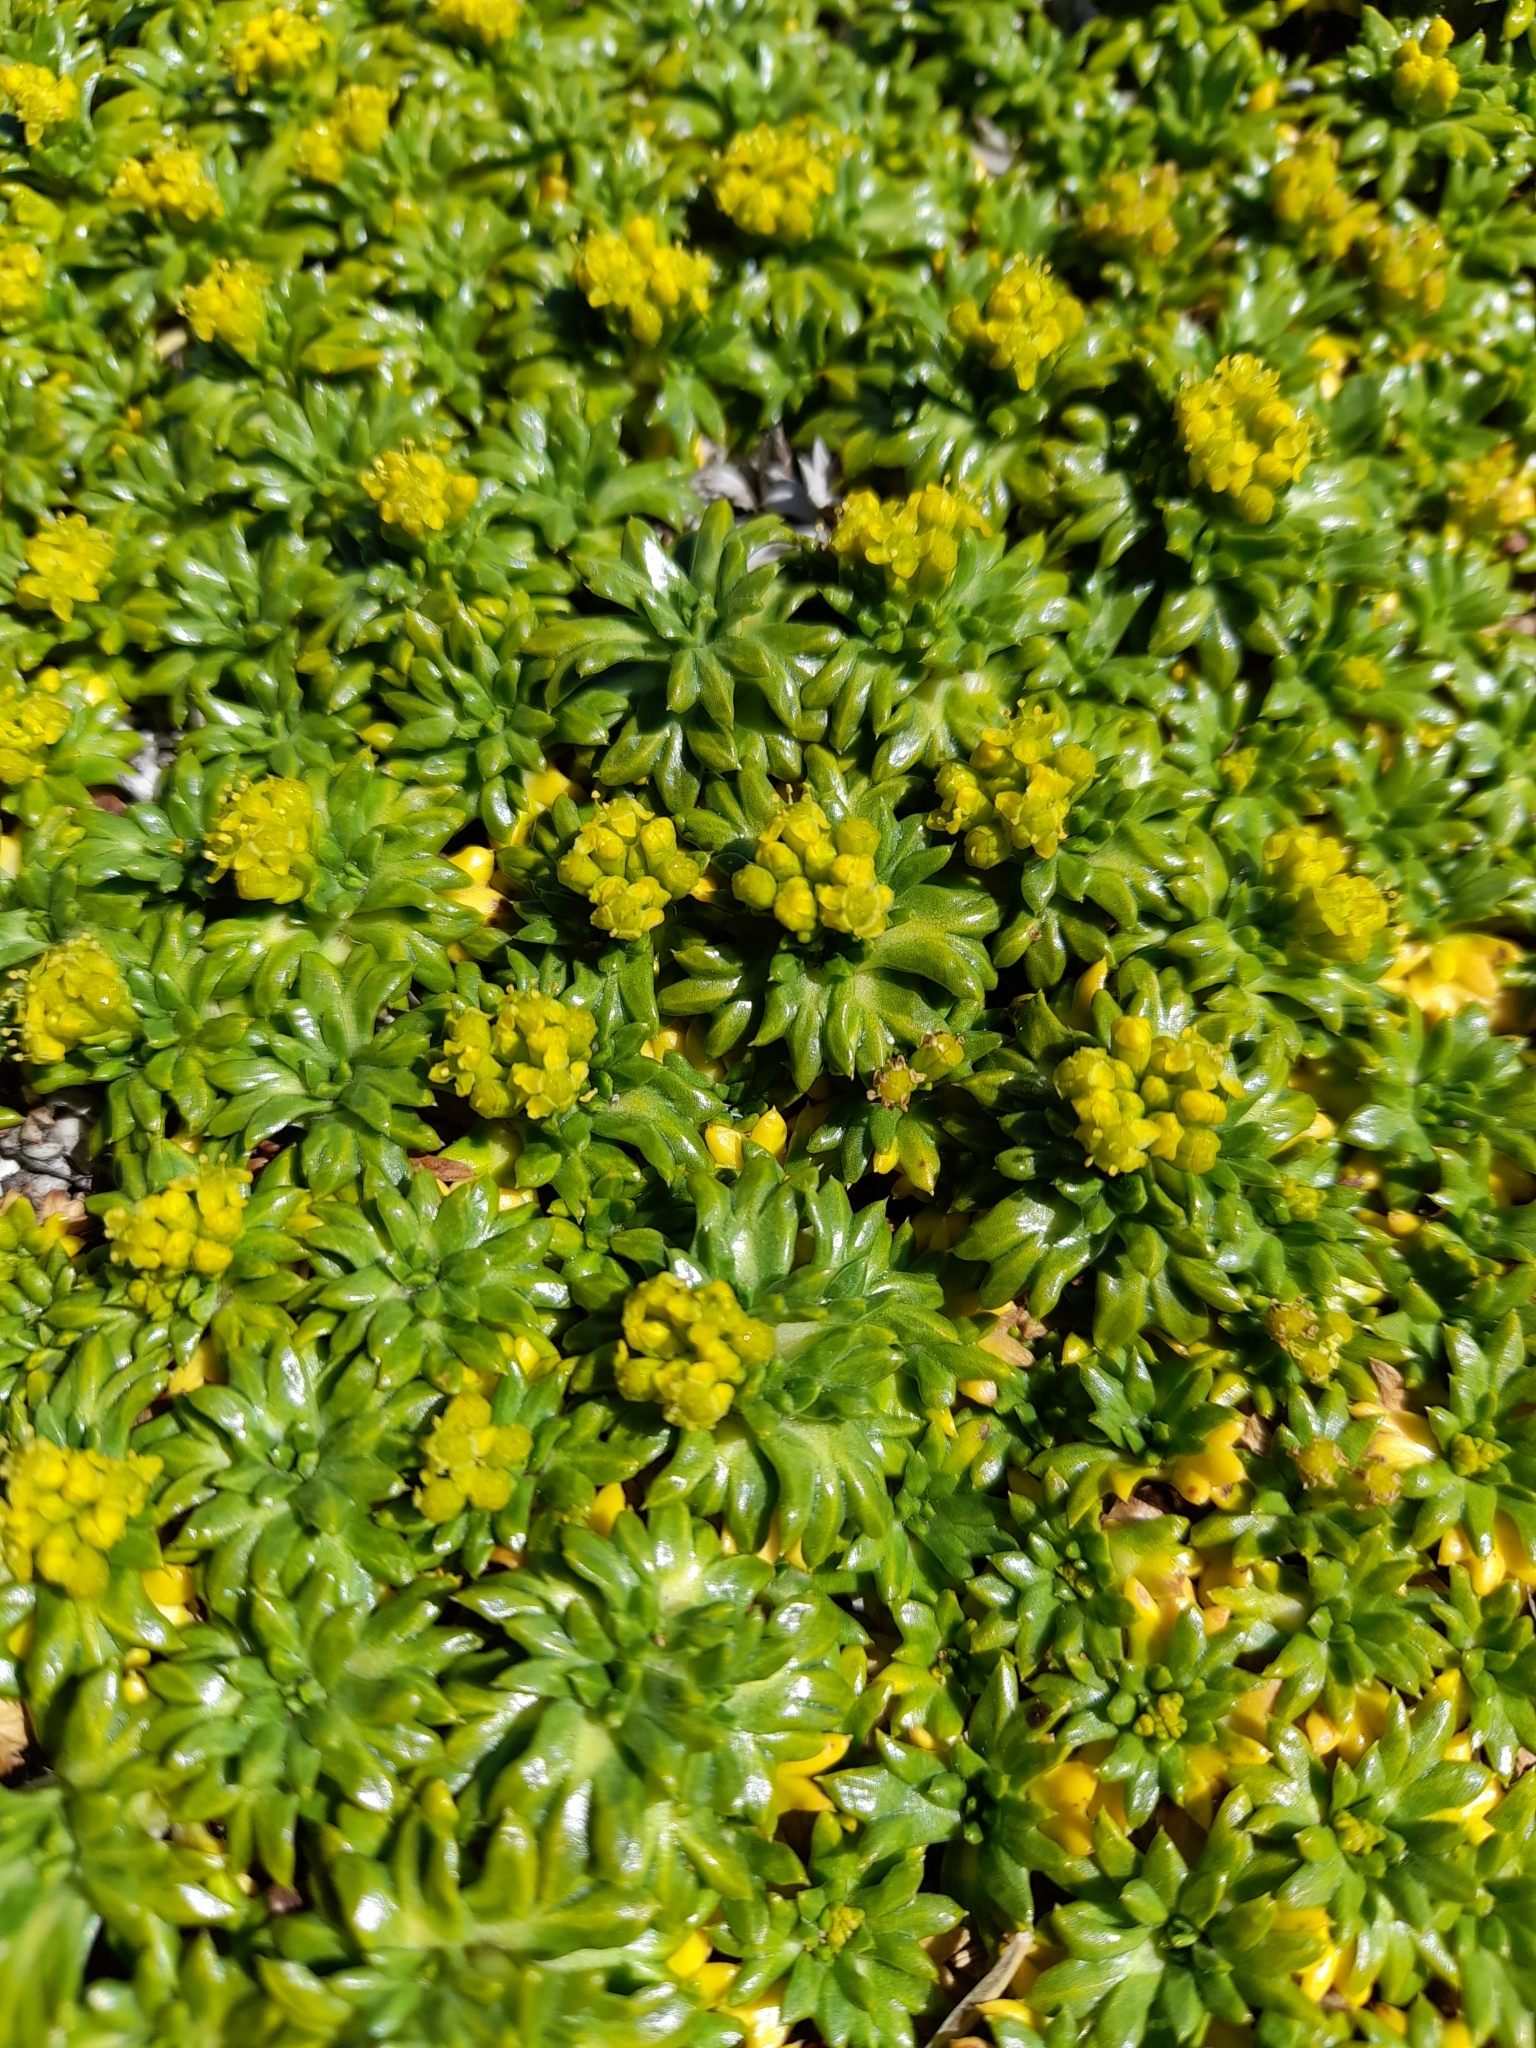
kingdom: Plantae
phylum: Tracheophyta
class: Magnoliopsida
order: Apiales
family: Apiaceae
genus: Azorella
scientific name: Azorella trifurcata
